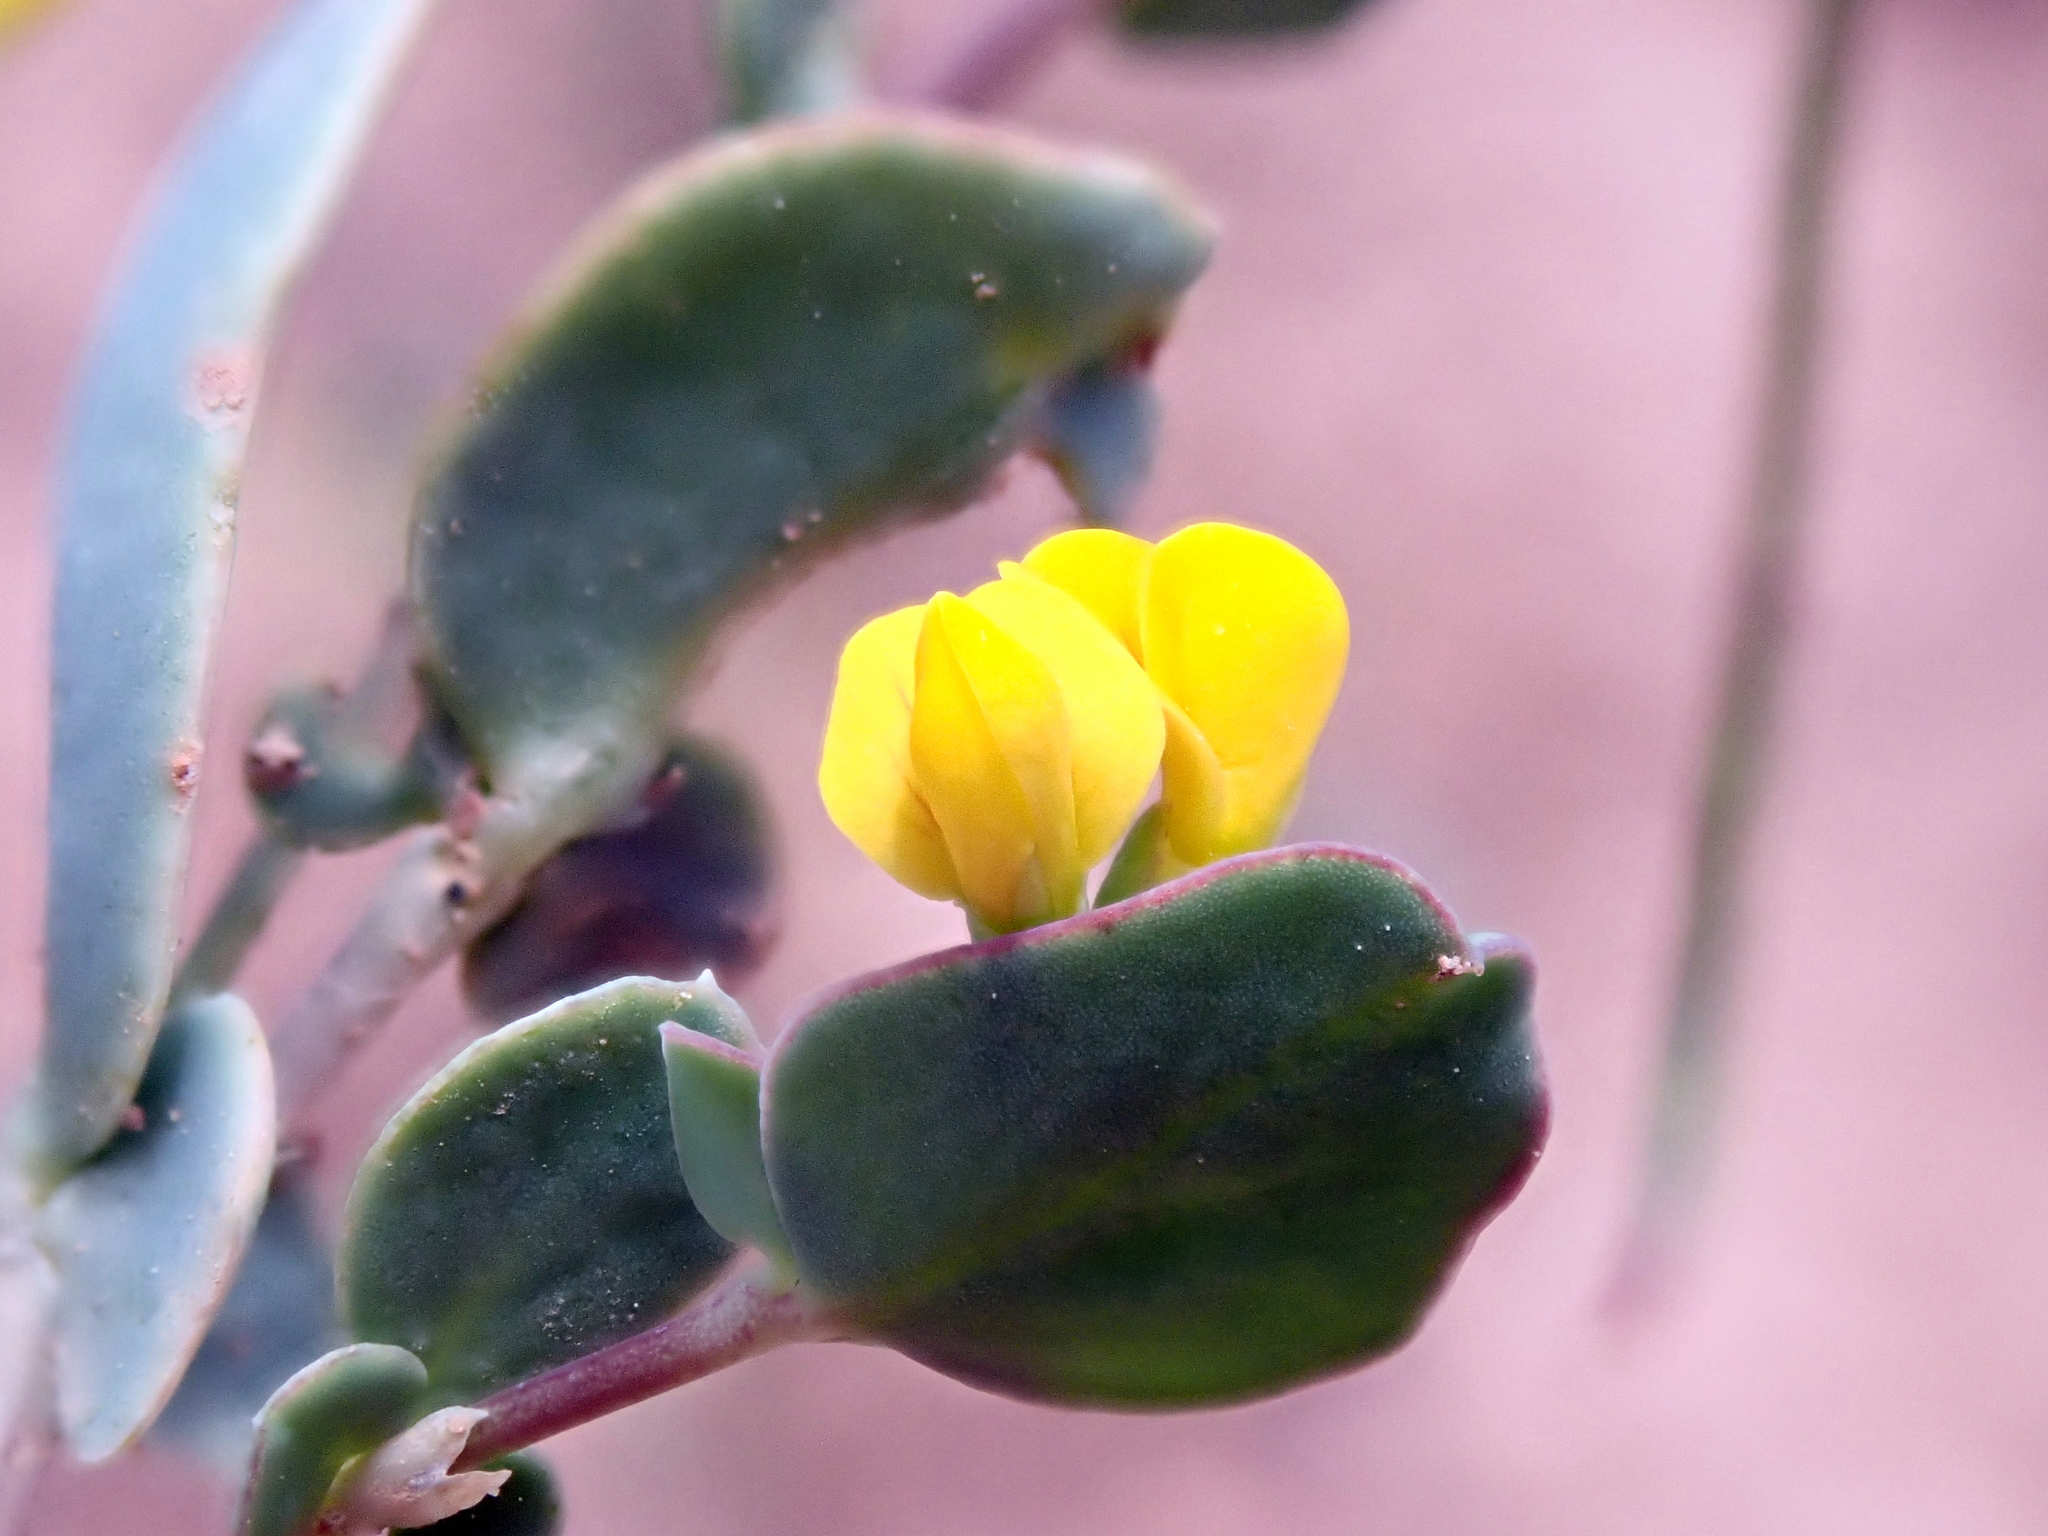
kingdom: Plantae
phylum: Tracheophyta
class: Magnoliopsida
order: Fabales
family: Fabaceae
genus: Coronilla
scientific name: Coronilla scorpioides
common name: Annual scorpion-vetch
